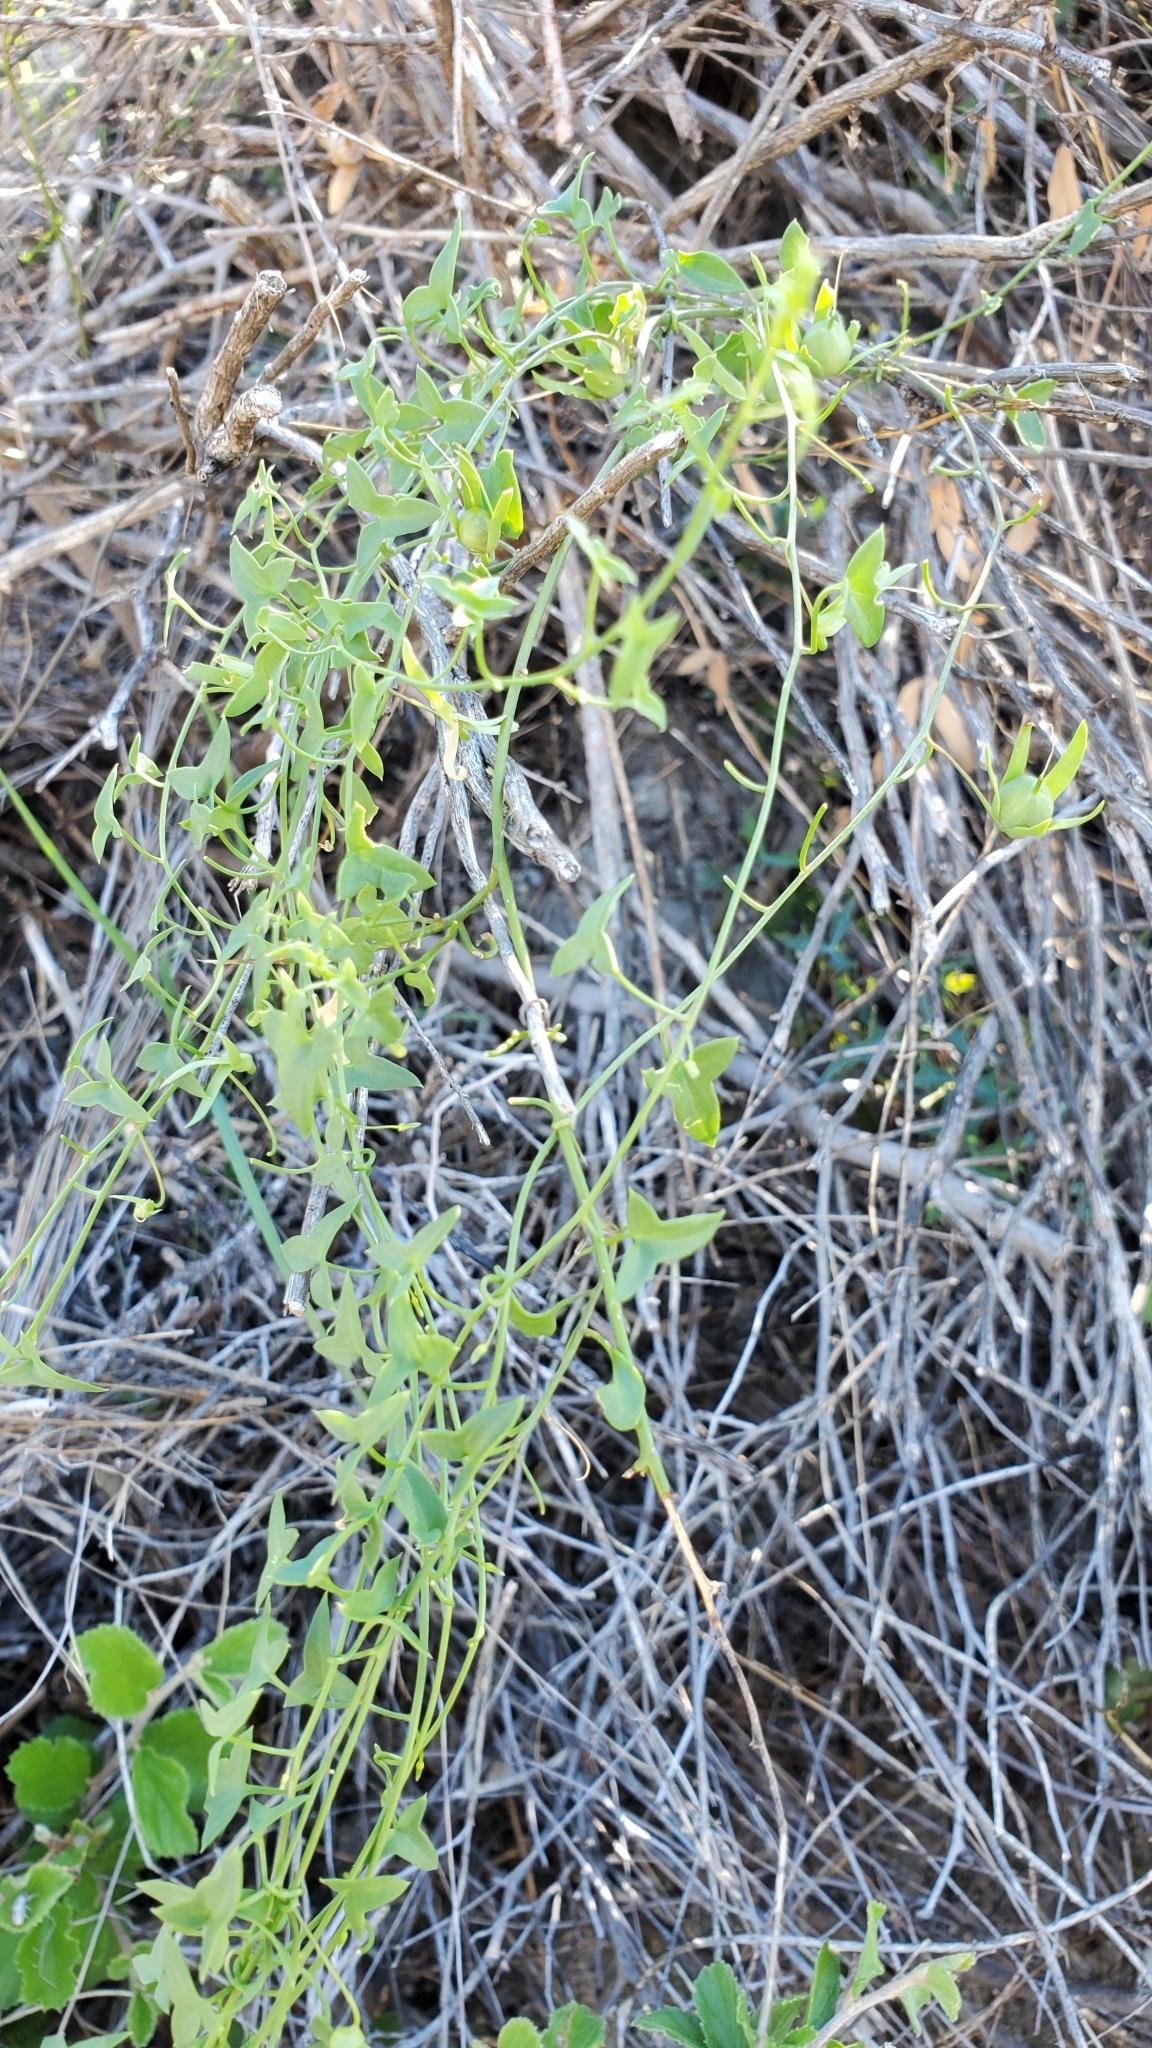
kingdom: Plantae
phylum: Tracheophyta
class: Magnoliopsida
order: Lamiales
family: Plantaginaceae
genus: Maurandella
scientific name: Maurandella antirrhiniflora
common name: Violet twining-snapdragon
